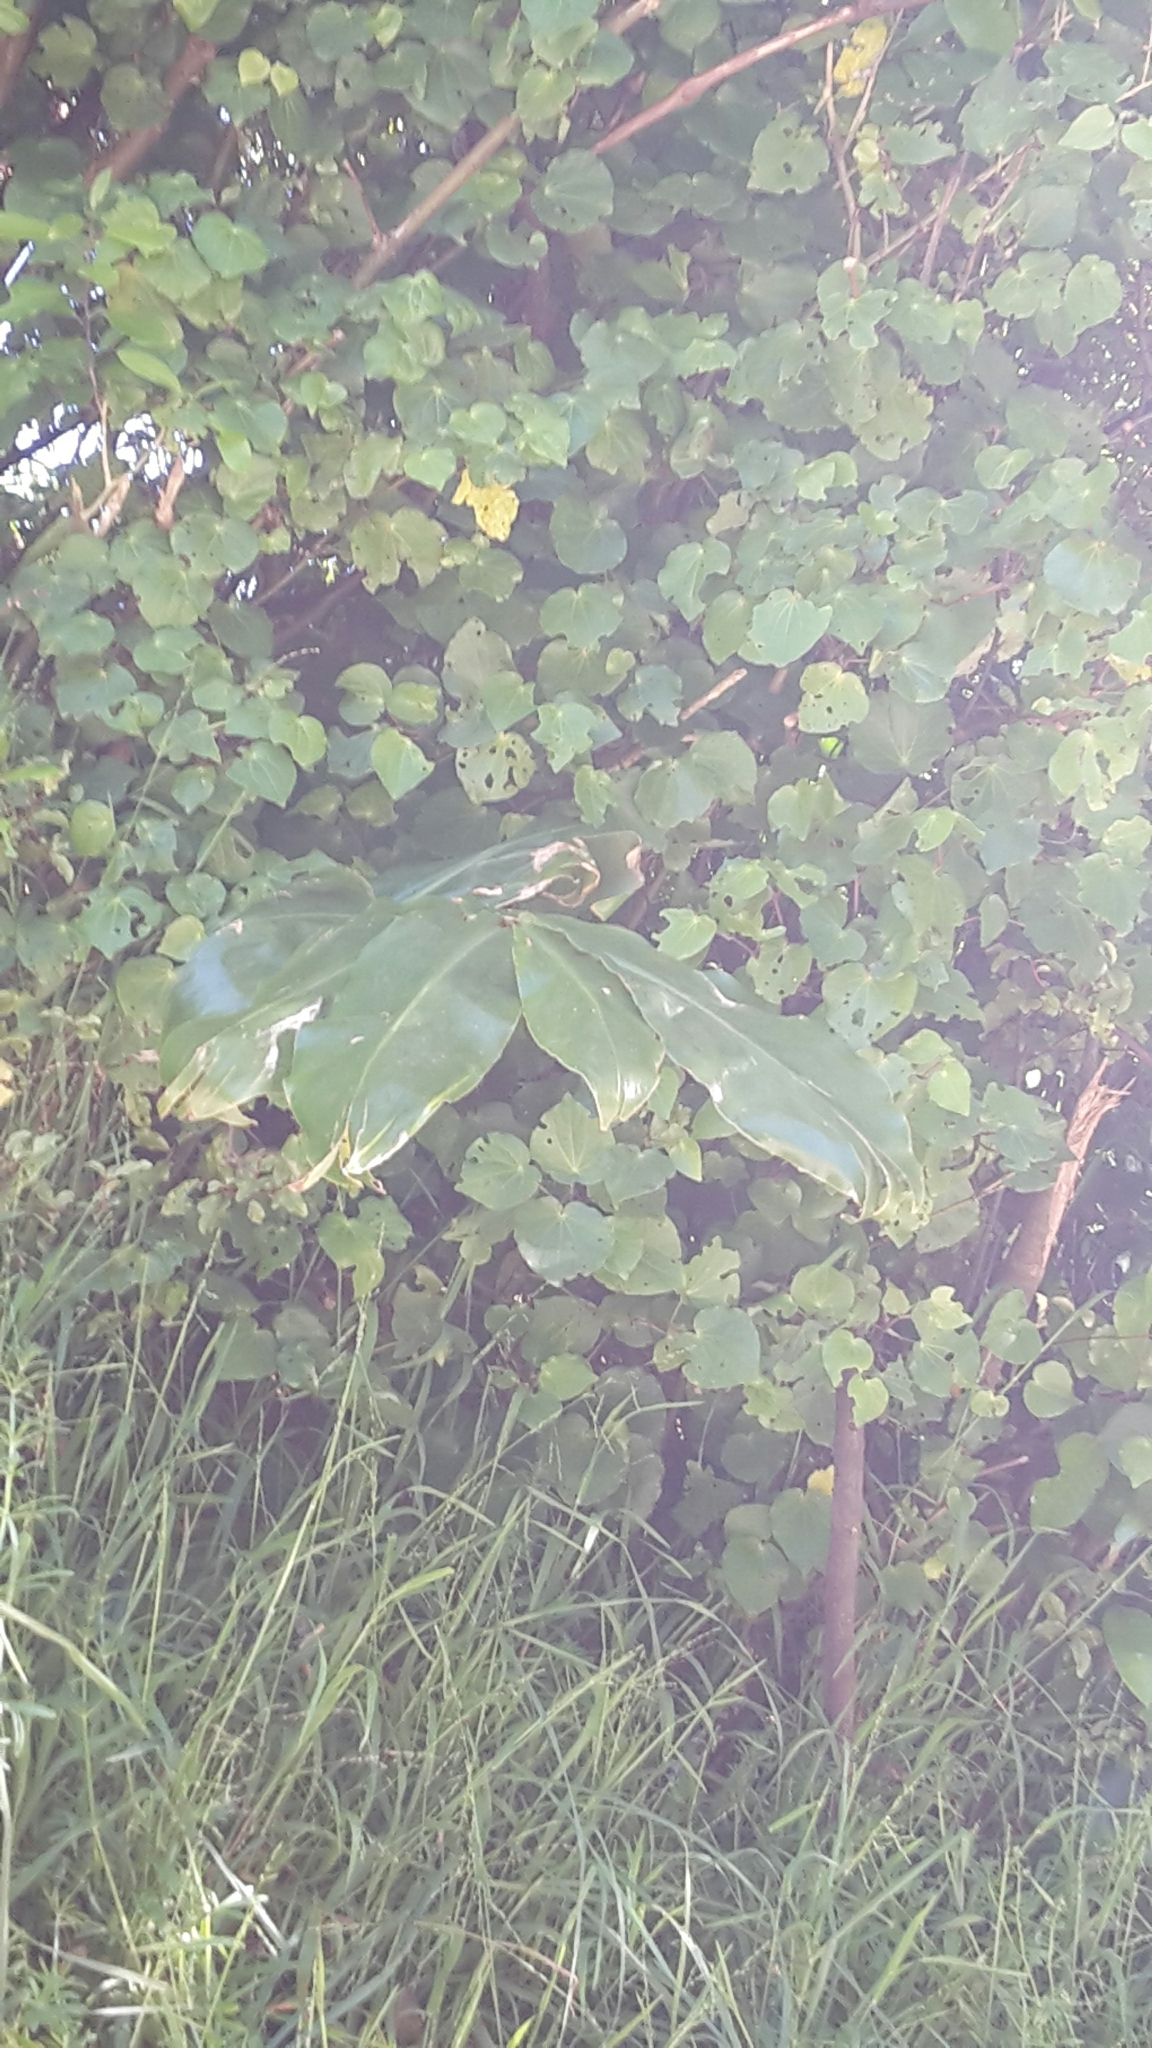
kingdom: Plantae
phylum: Tracheophyta
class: Liliopsida
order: Zingiberales
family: Zingiberaceae
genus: Hedychium
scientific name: Hedychium gardnerianum
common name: Himalayan ginger
